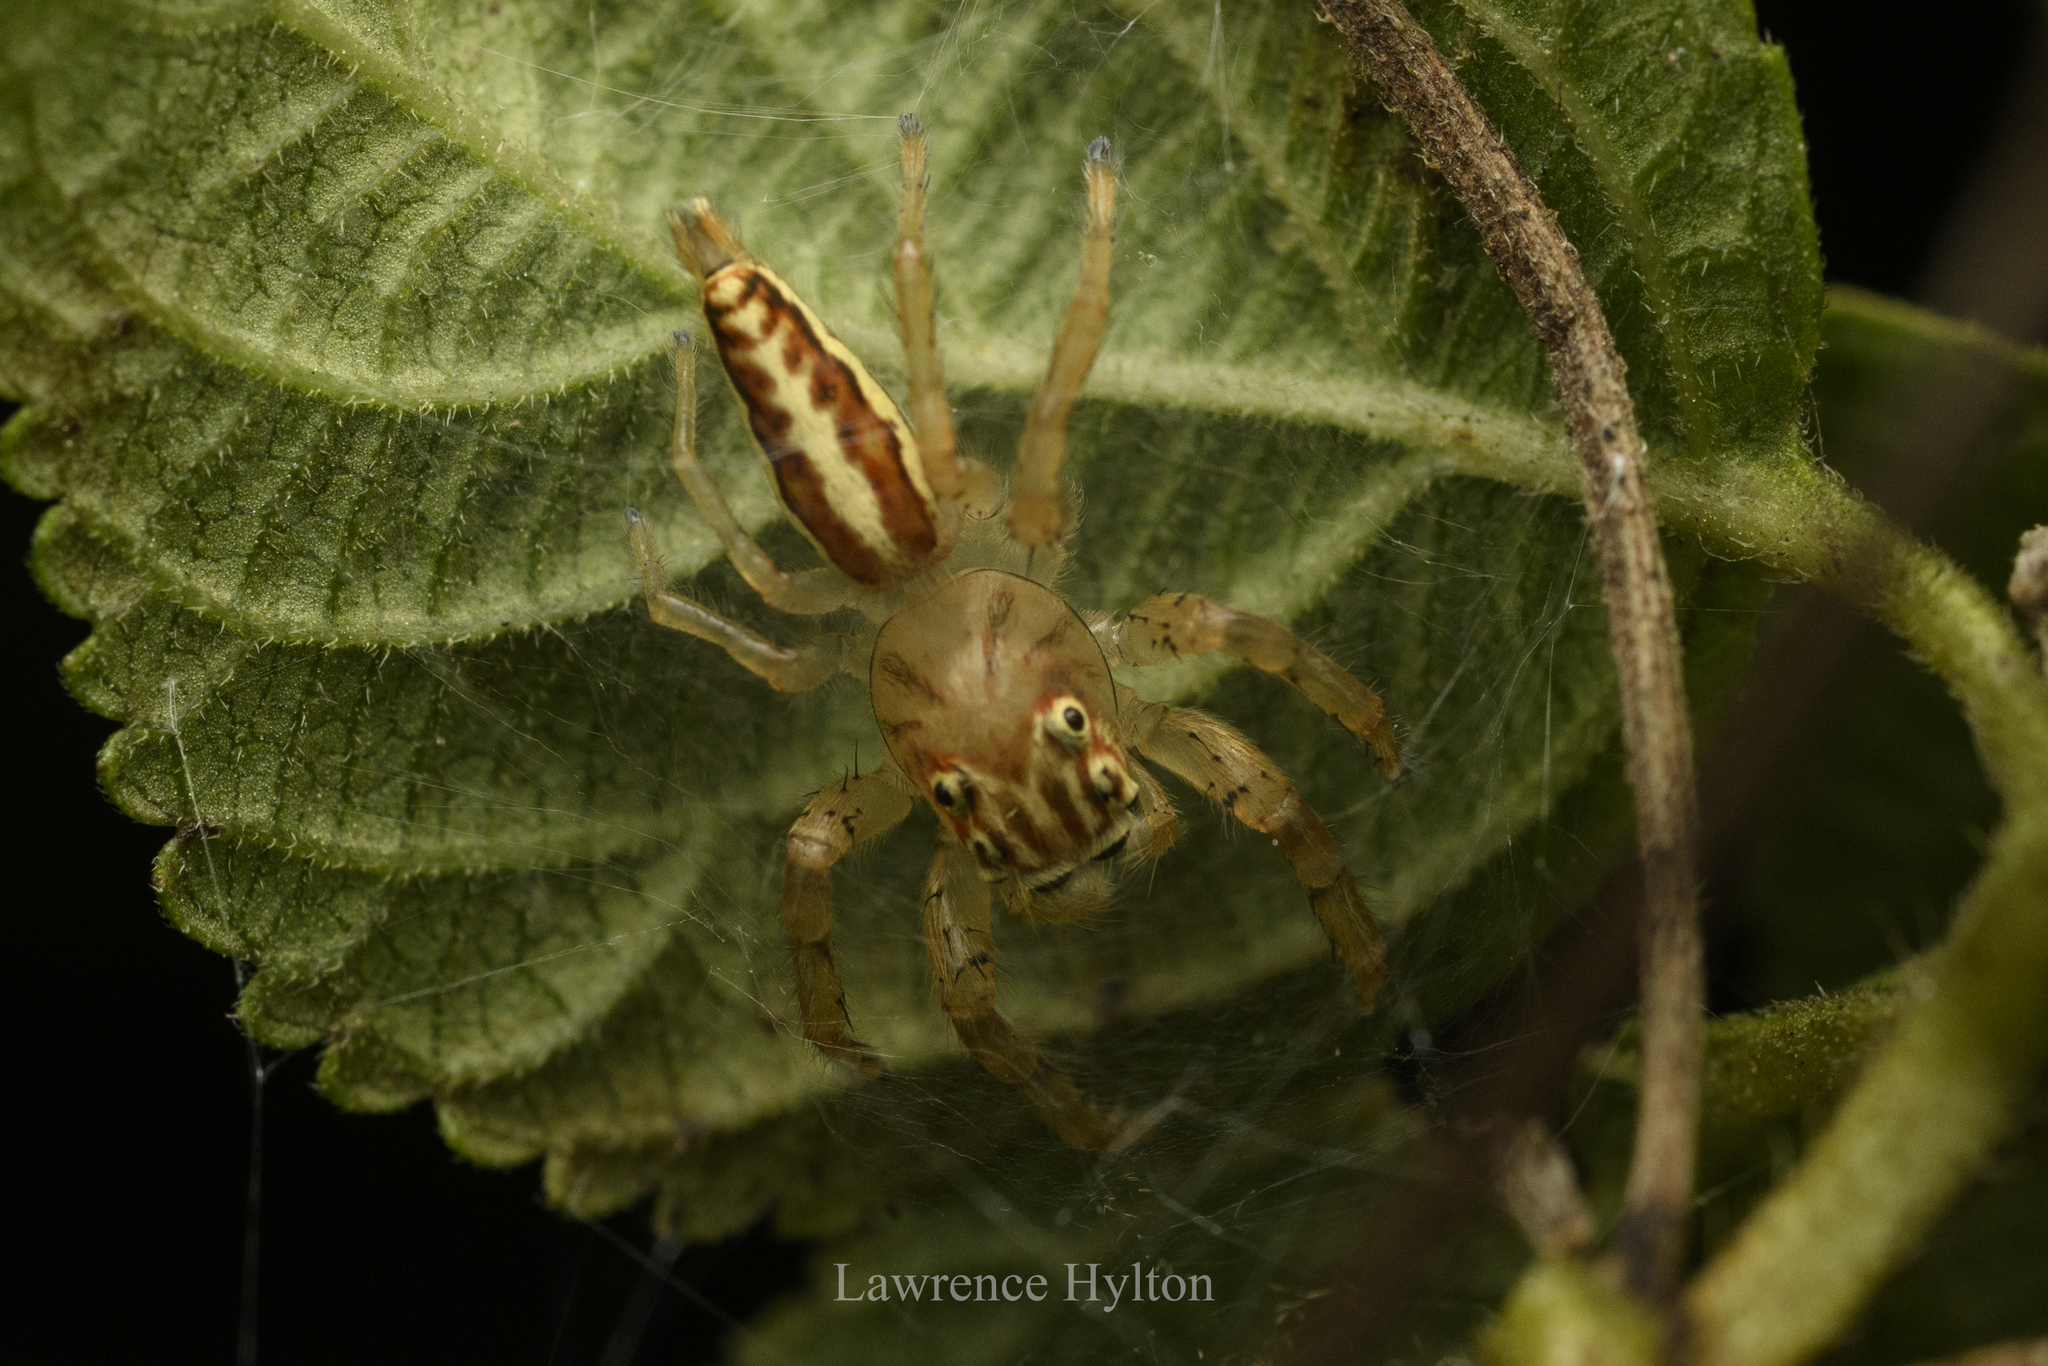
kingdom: Animalia
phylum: Arthropoda
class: Arachnida
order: Araneae
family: Salticidae
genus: Telamonia
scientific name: Telamonia caprina
